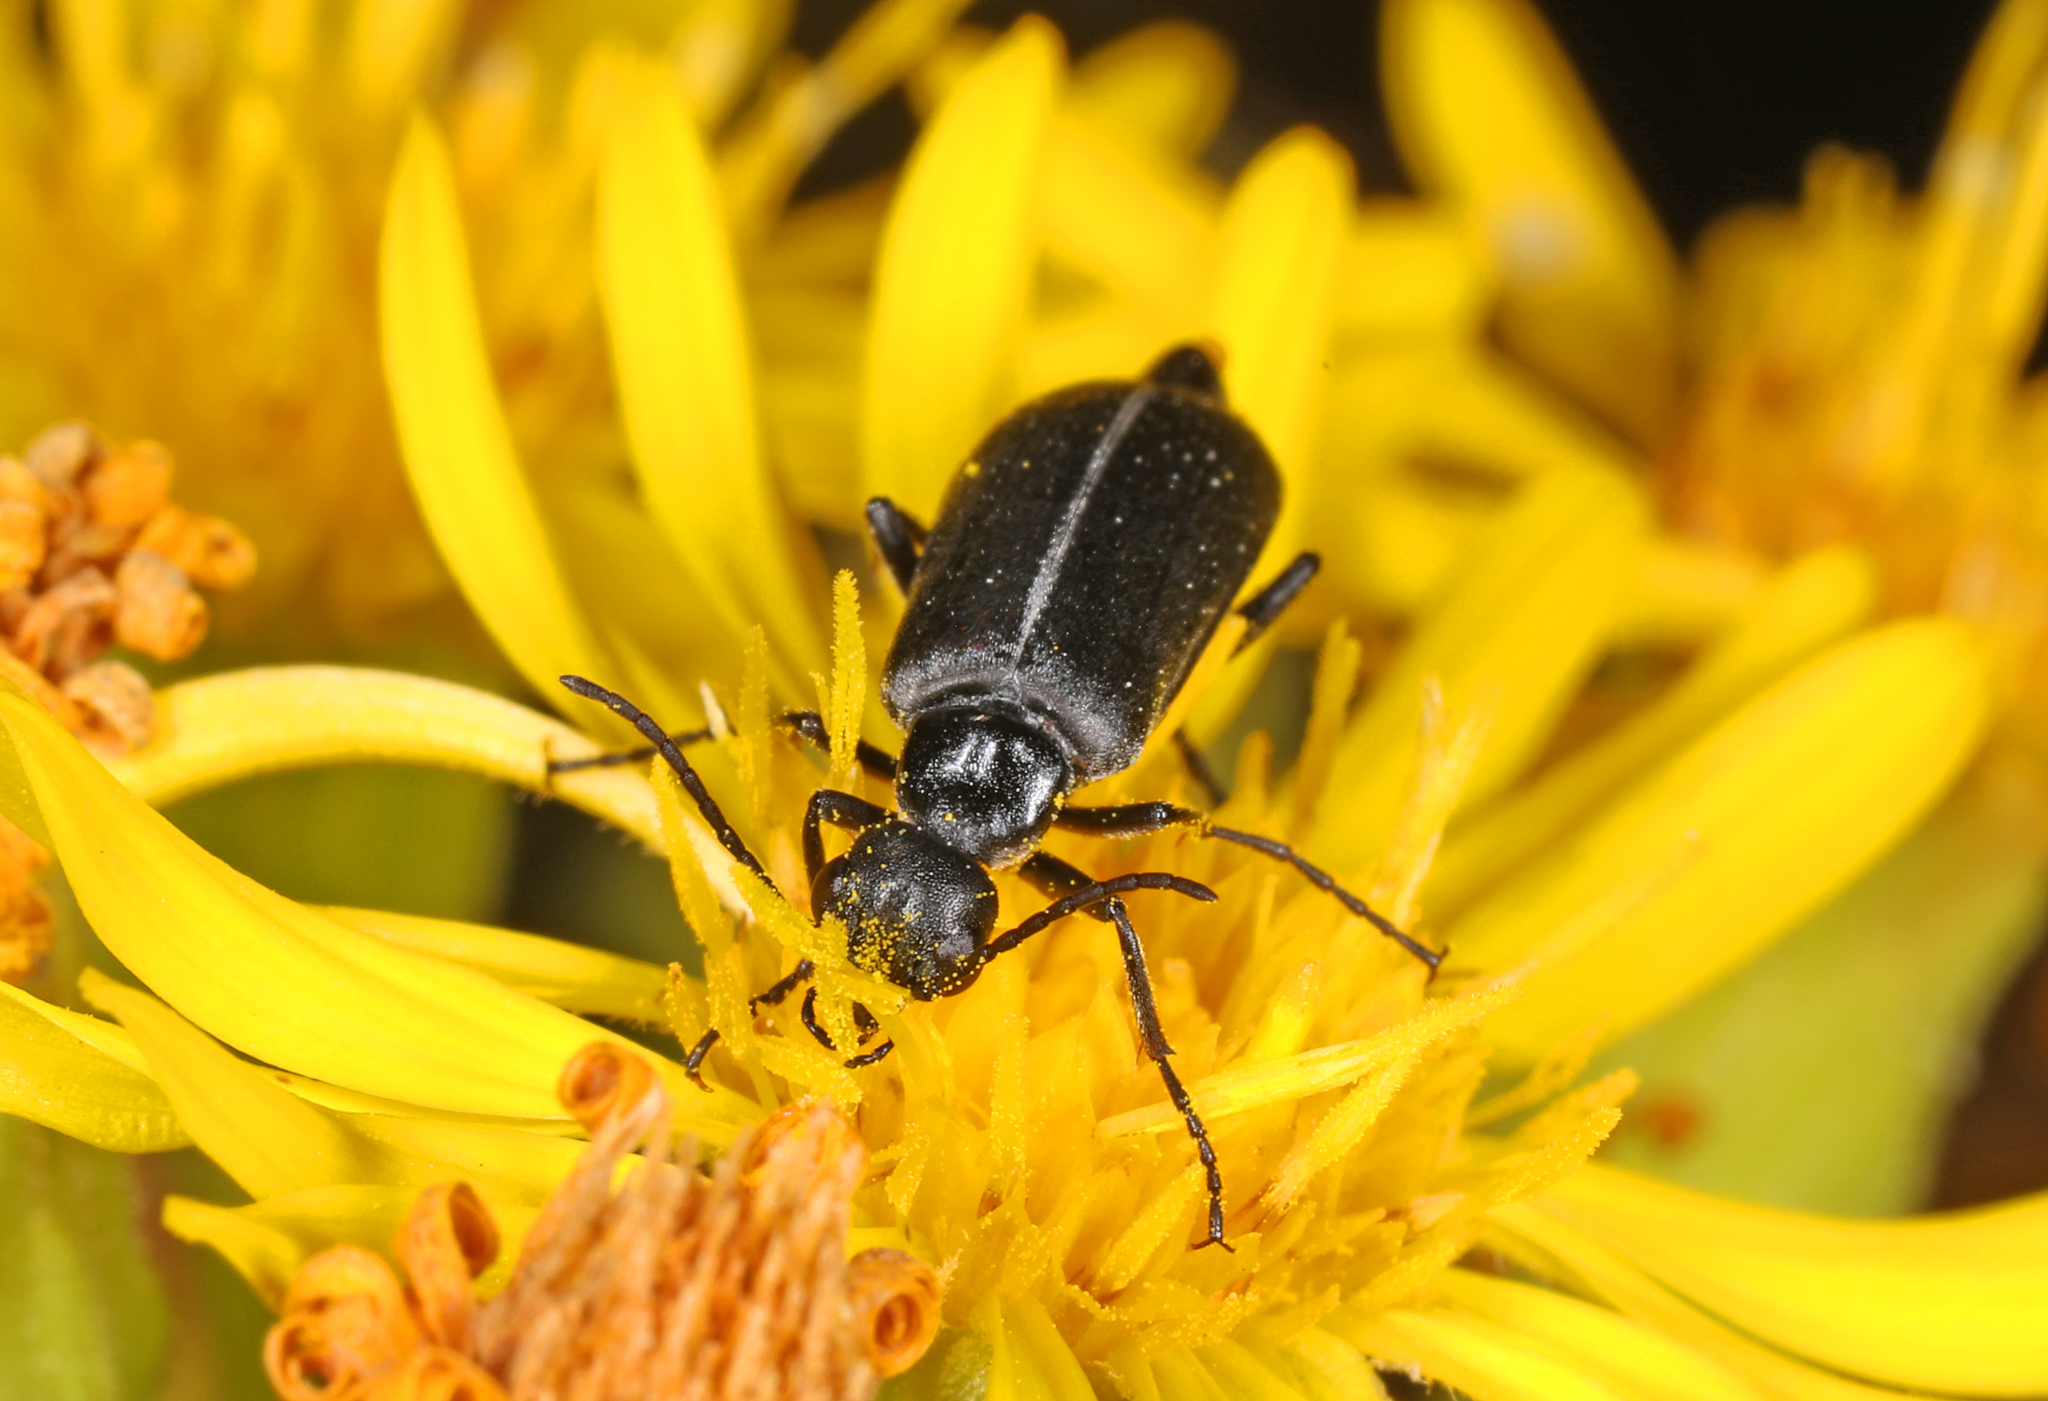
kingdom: Animalia
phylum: Arthropoda
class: Insecta
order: Coleoptera
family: Meloidae
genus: Epicauta
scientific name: Epicauta heterodera
